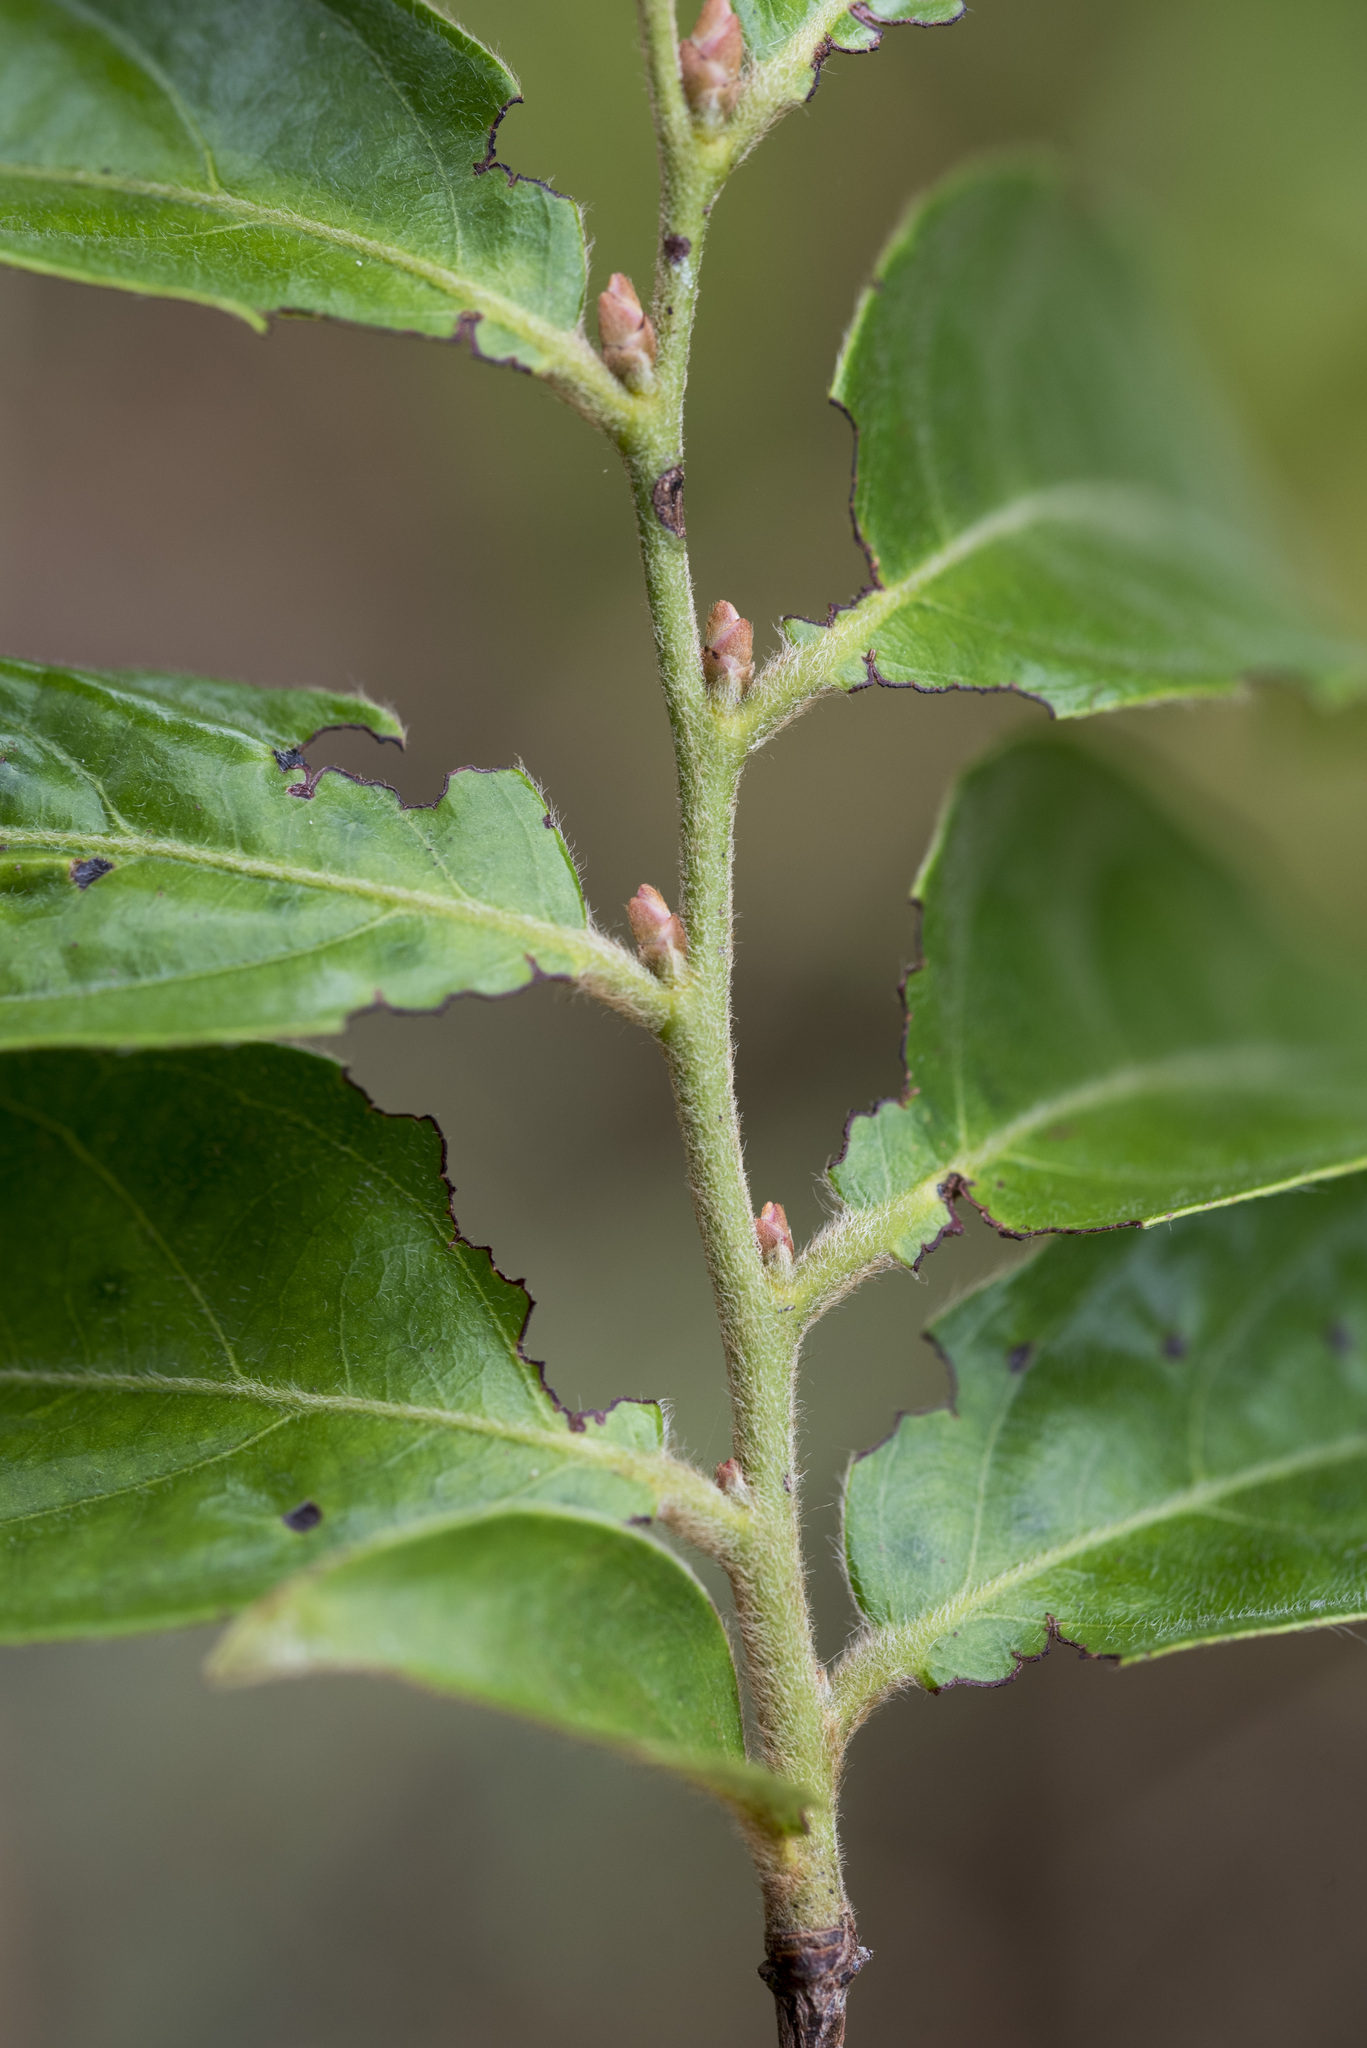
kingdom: Plantae
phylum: Tracheophyta
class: Magnoliopsida
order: Ericales
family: Ebenaceae
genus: Diospyros
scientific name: Diospyros eriantha
